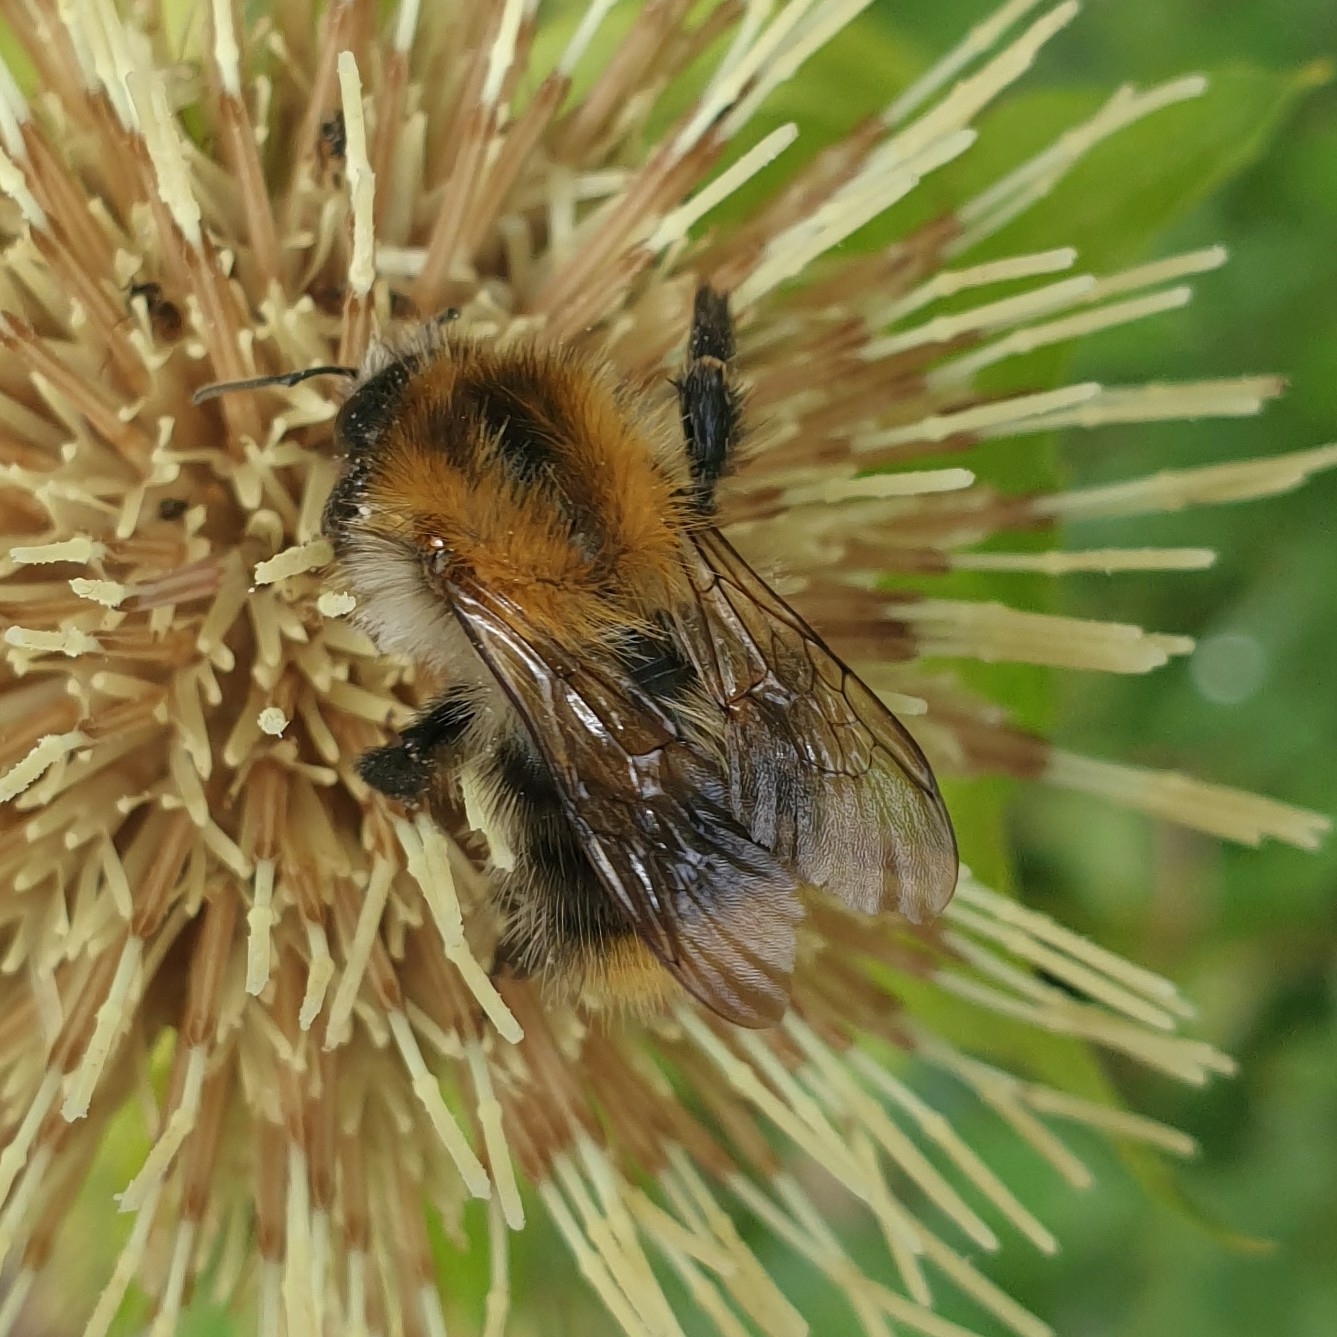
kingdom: Animalia
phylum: Arthropoda
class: Insecta
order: Hymenoptera
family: Apidae
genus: Bombus
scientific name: Bombus pascuorum
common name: Common carder bee
